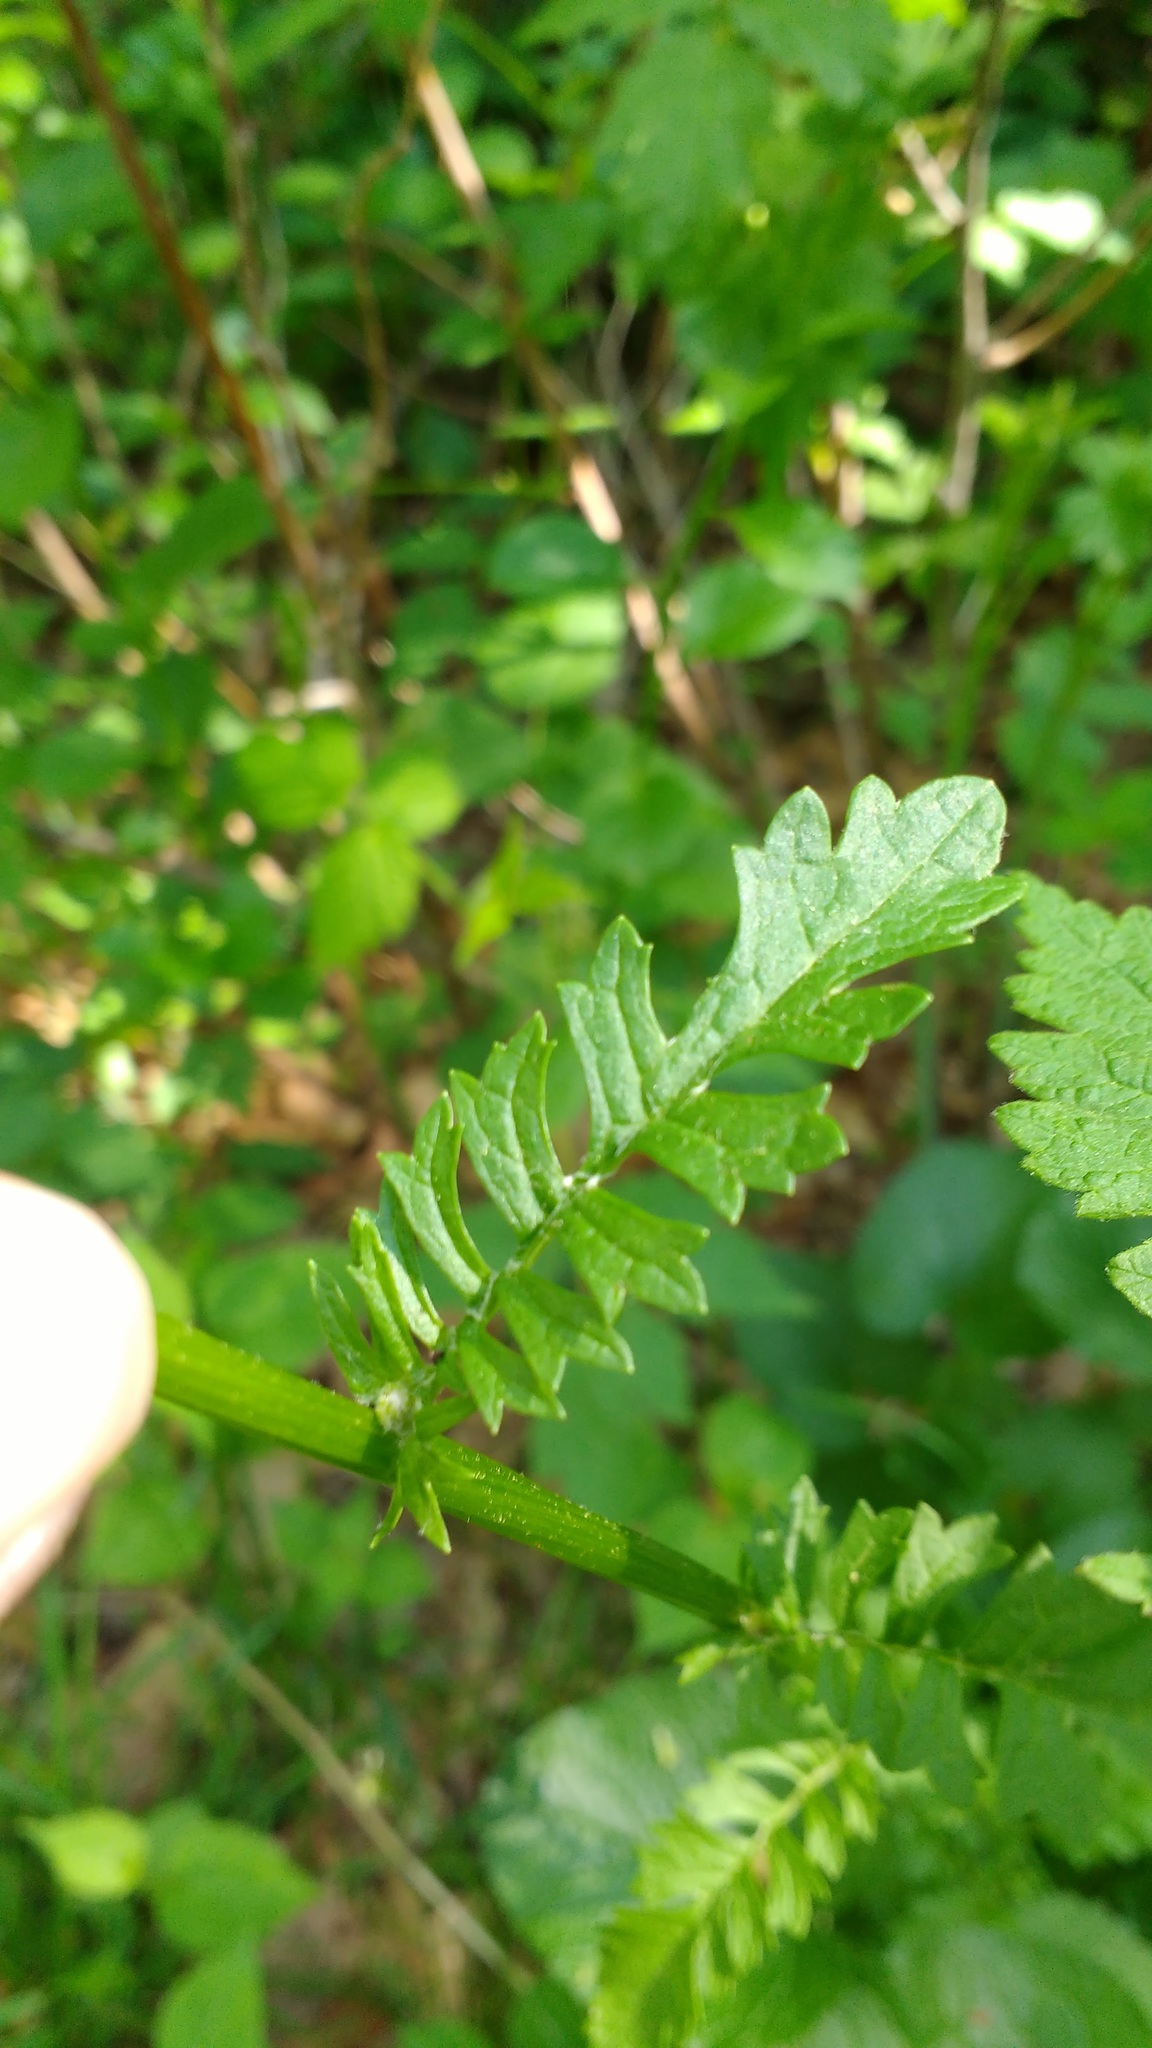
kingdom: Plantae
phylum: Tracheophyta
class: Magnoliopsida
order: Asterales
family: Asteraceae
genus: Packera
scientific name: Packera aurea
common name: Golden groundsel
